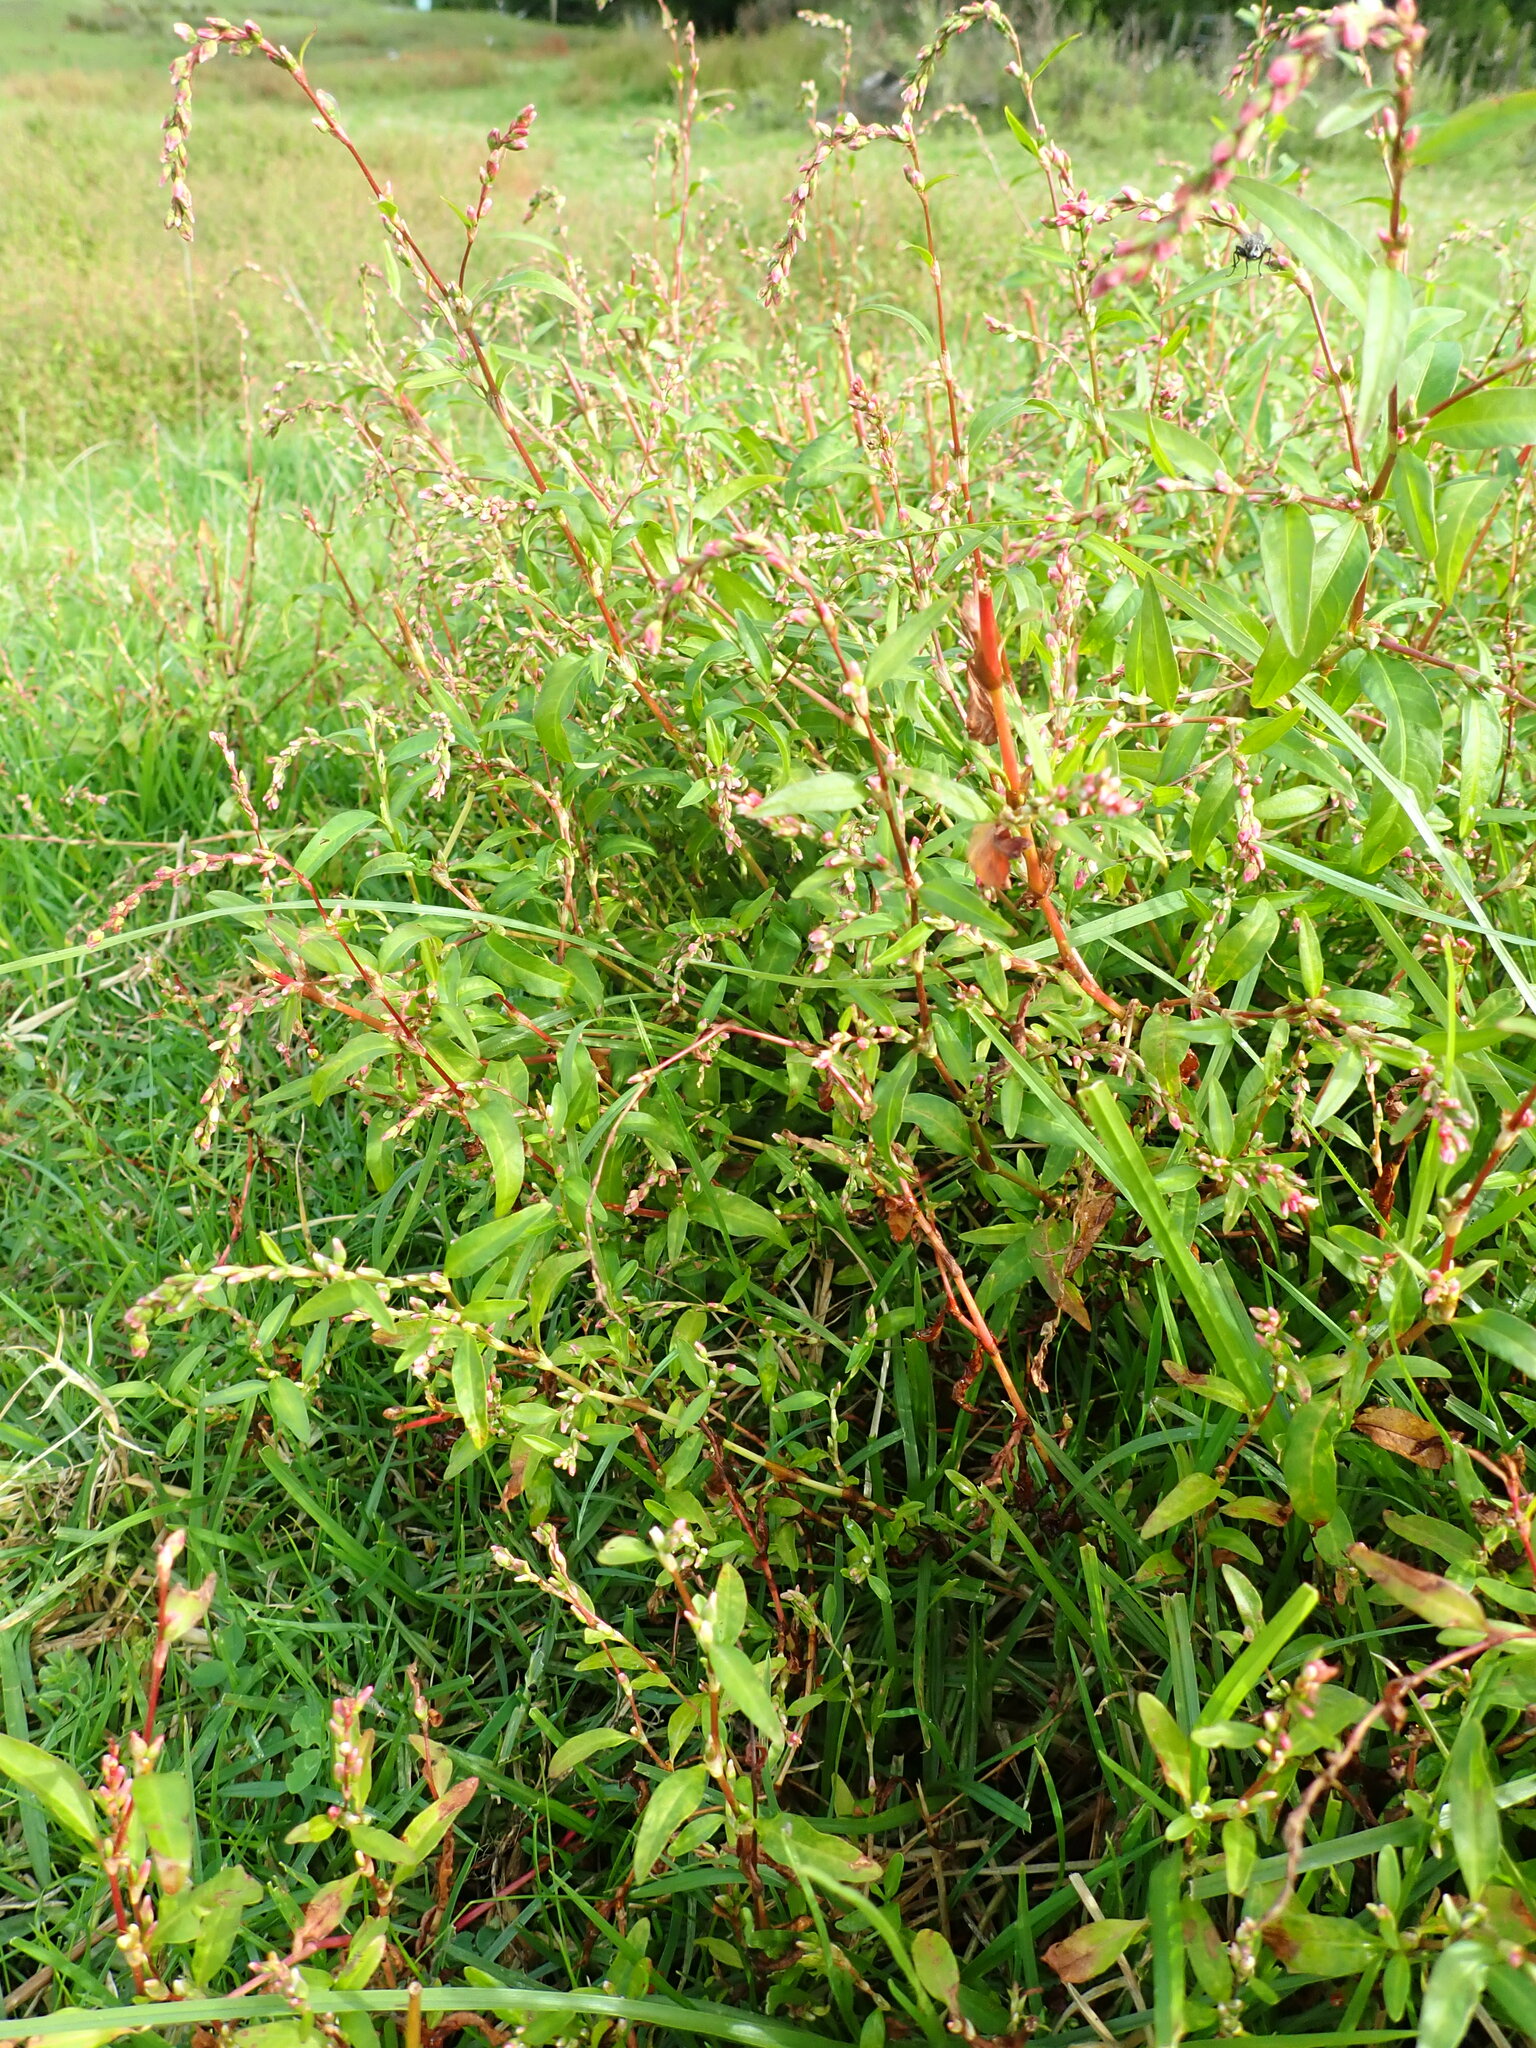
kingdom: Plantae
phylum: Tracheophyta
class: Magnoliopsida
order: Caryophyllales
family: Polygonaceae
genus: Persicaria
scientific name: Persicaria maculosa
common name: Redshank
